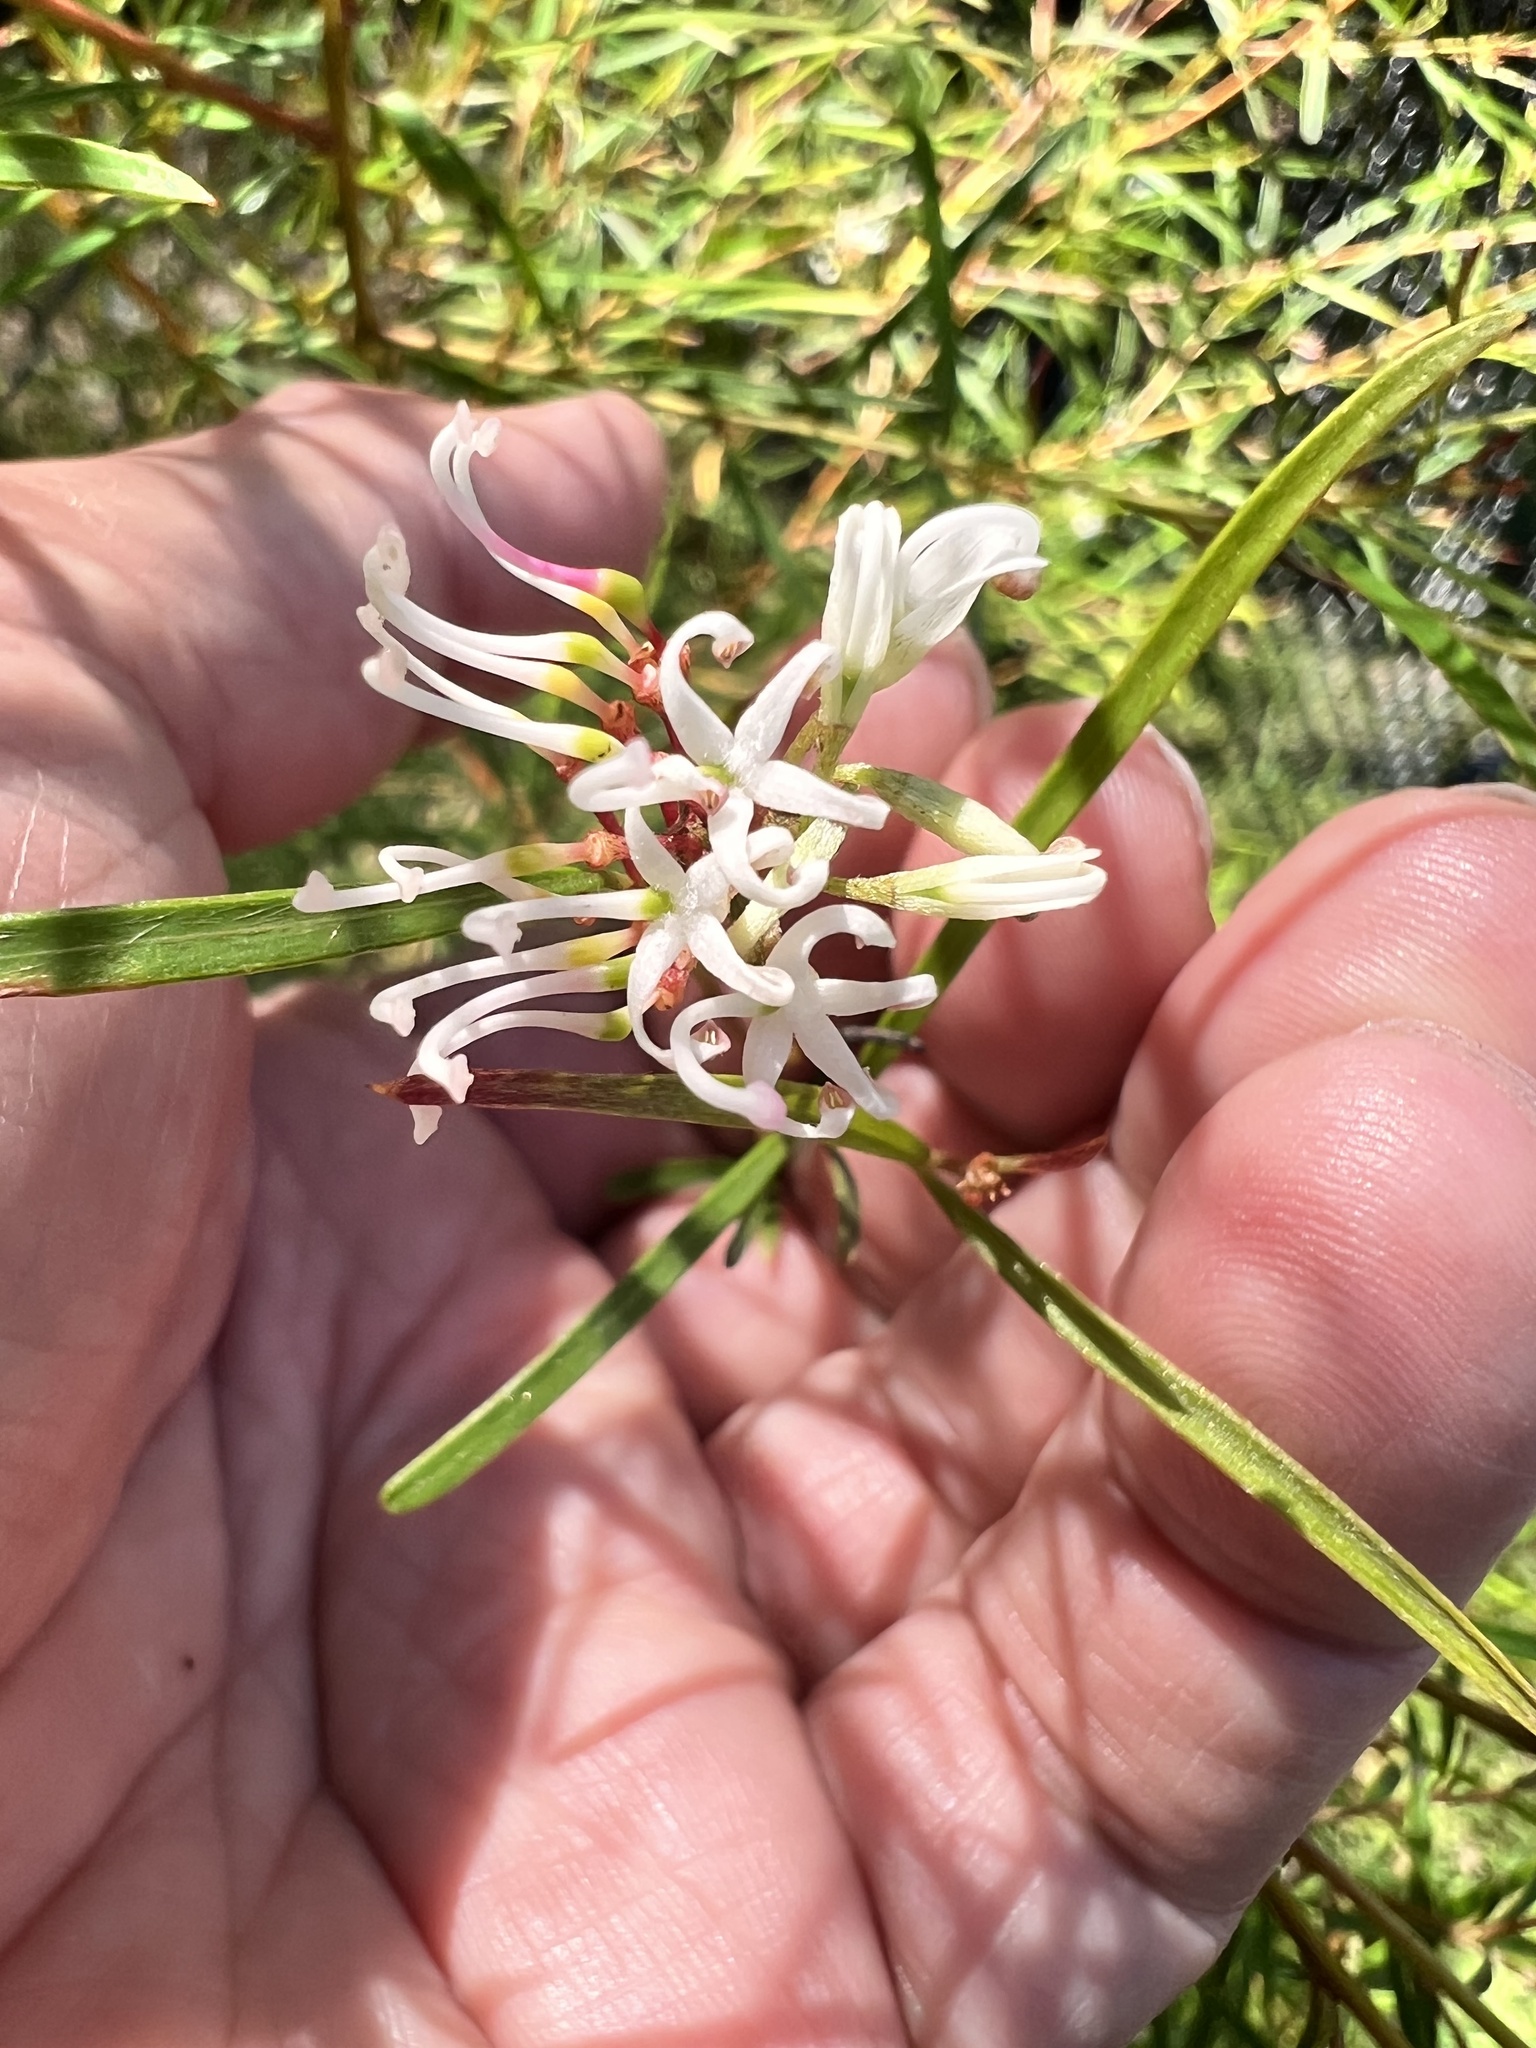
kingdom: Plantae
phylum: Tracheophyta
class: Magnoliopsida
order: Proteales
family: Proteaceae
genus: Grevillea
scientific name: Grevillea linearifolia
